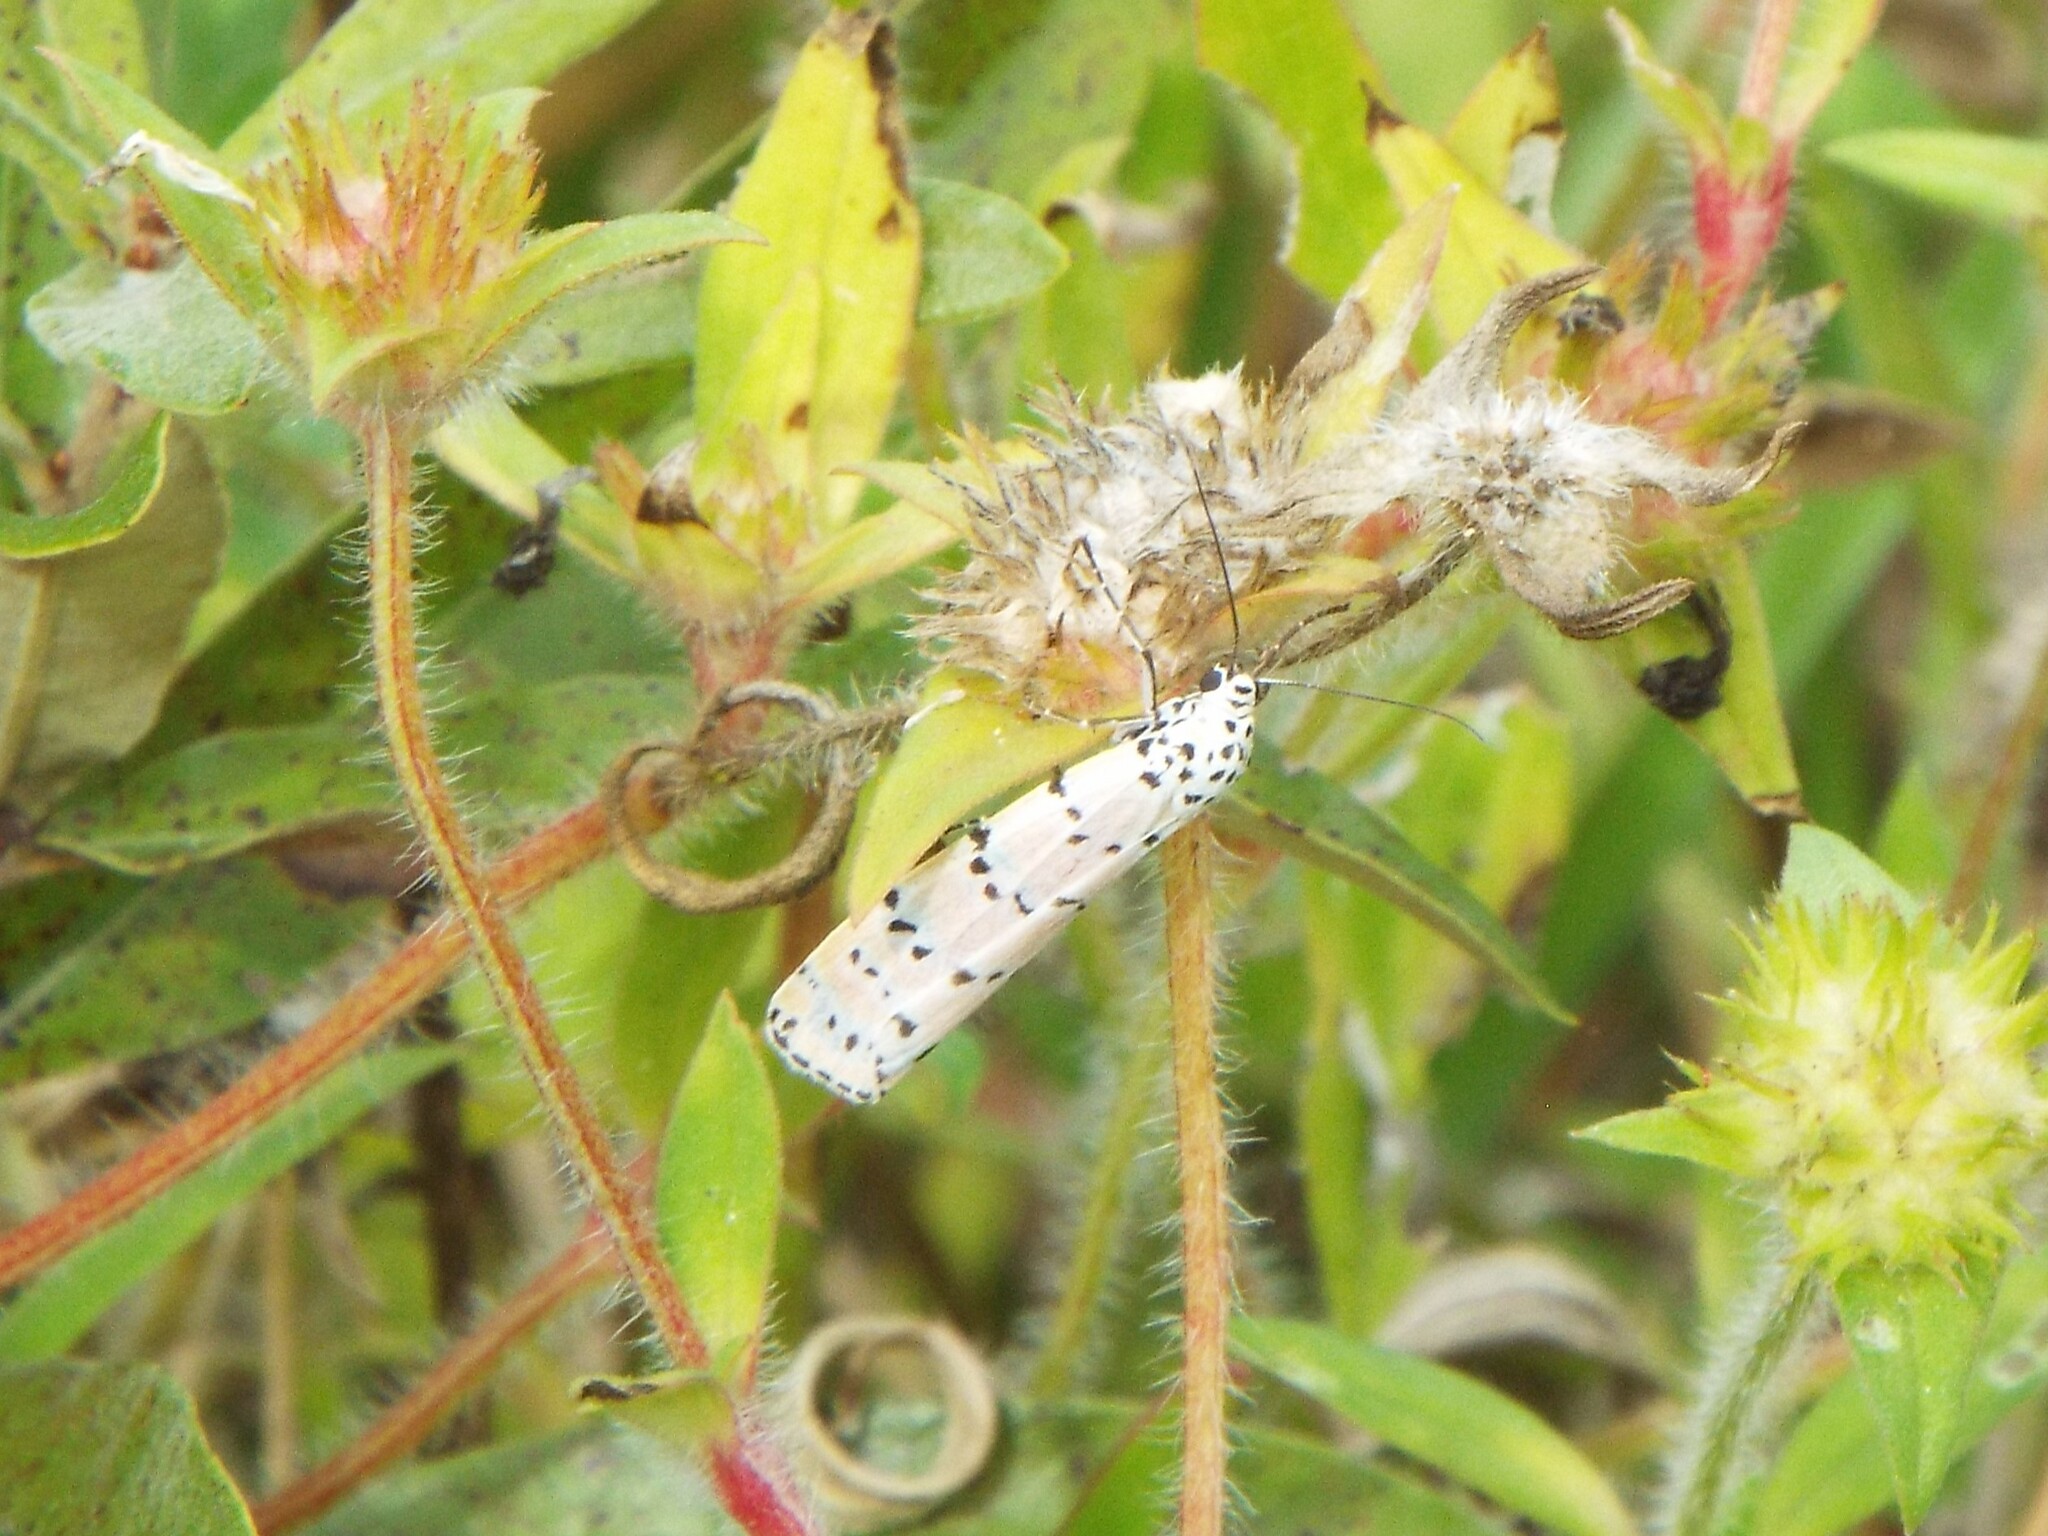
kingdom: Animalia
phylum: Arthropoda
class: Insecta
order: Lepidoptera
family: Erebidae
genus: Utetheisa
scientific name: Utetheisa ornatrix
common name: Beautiful utetheisa
